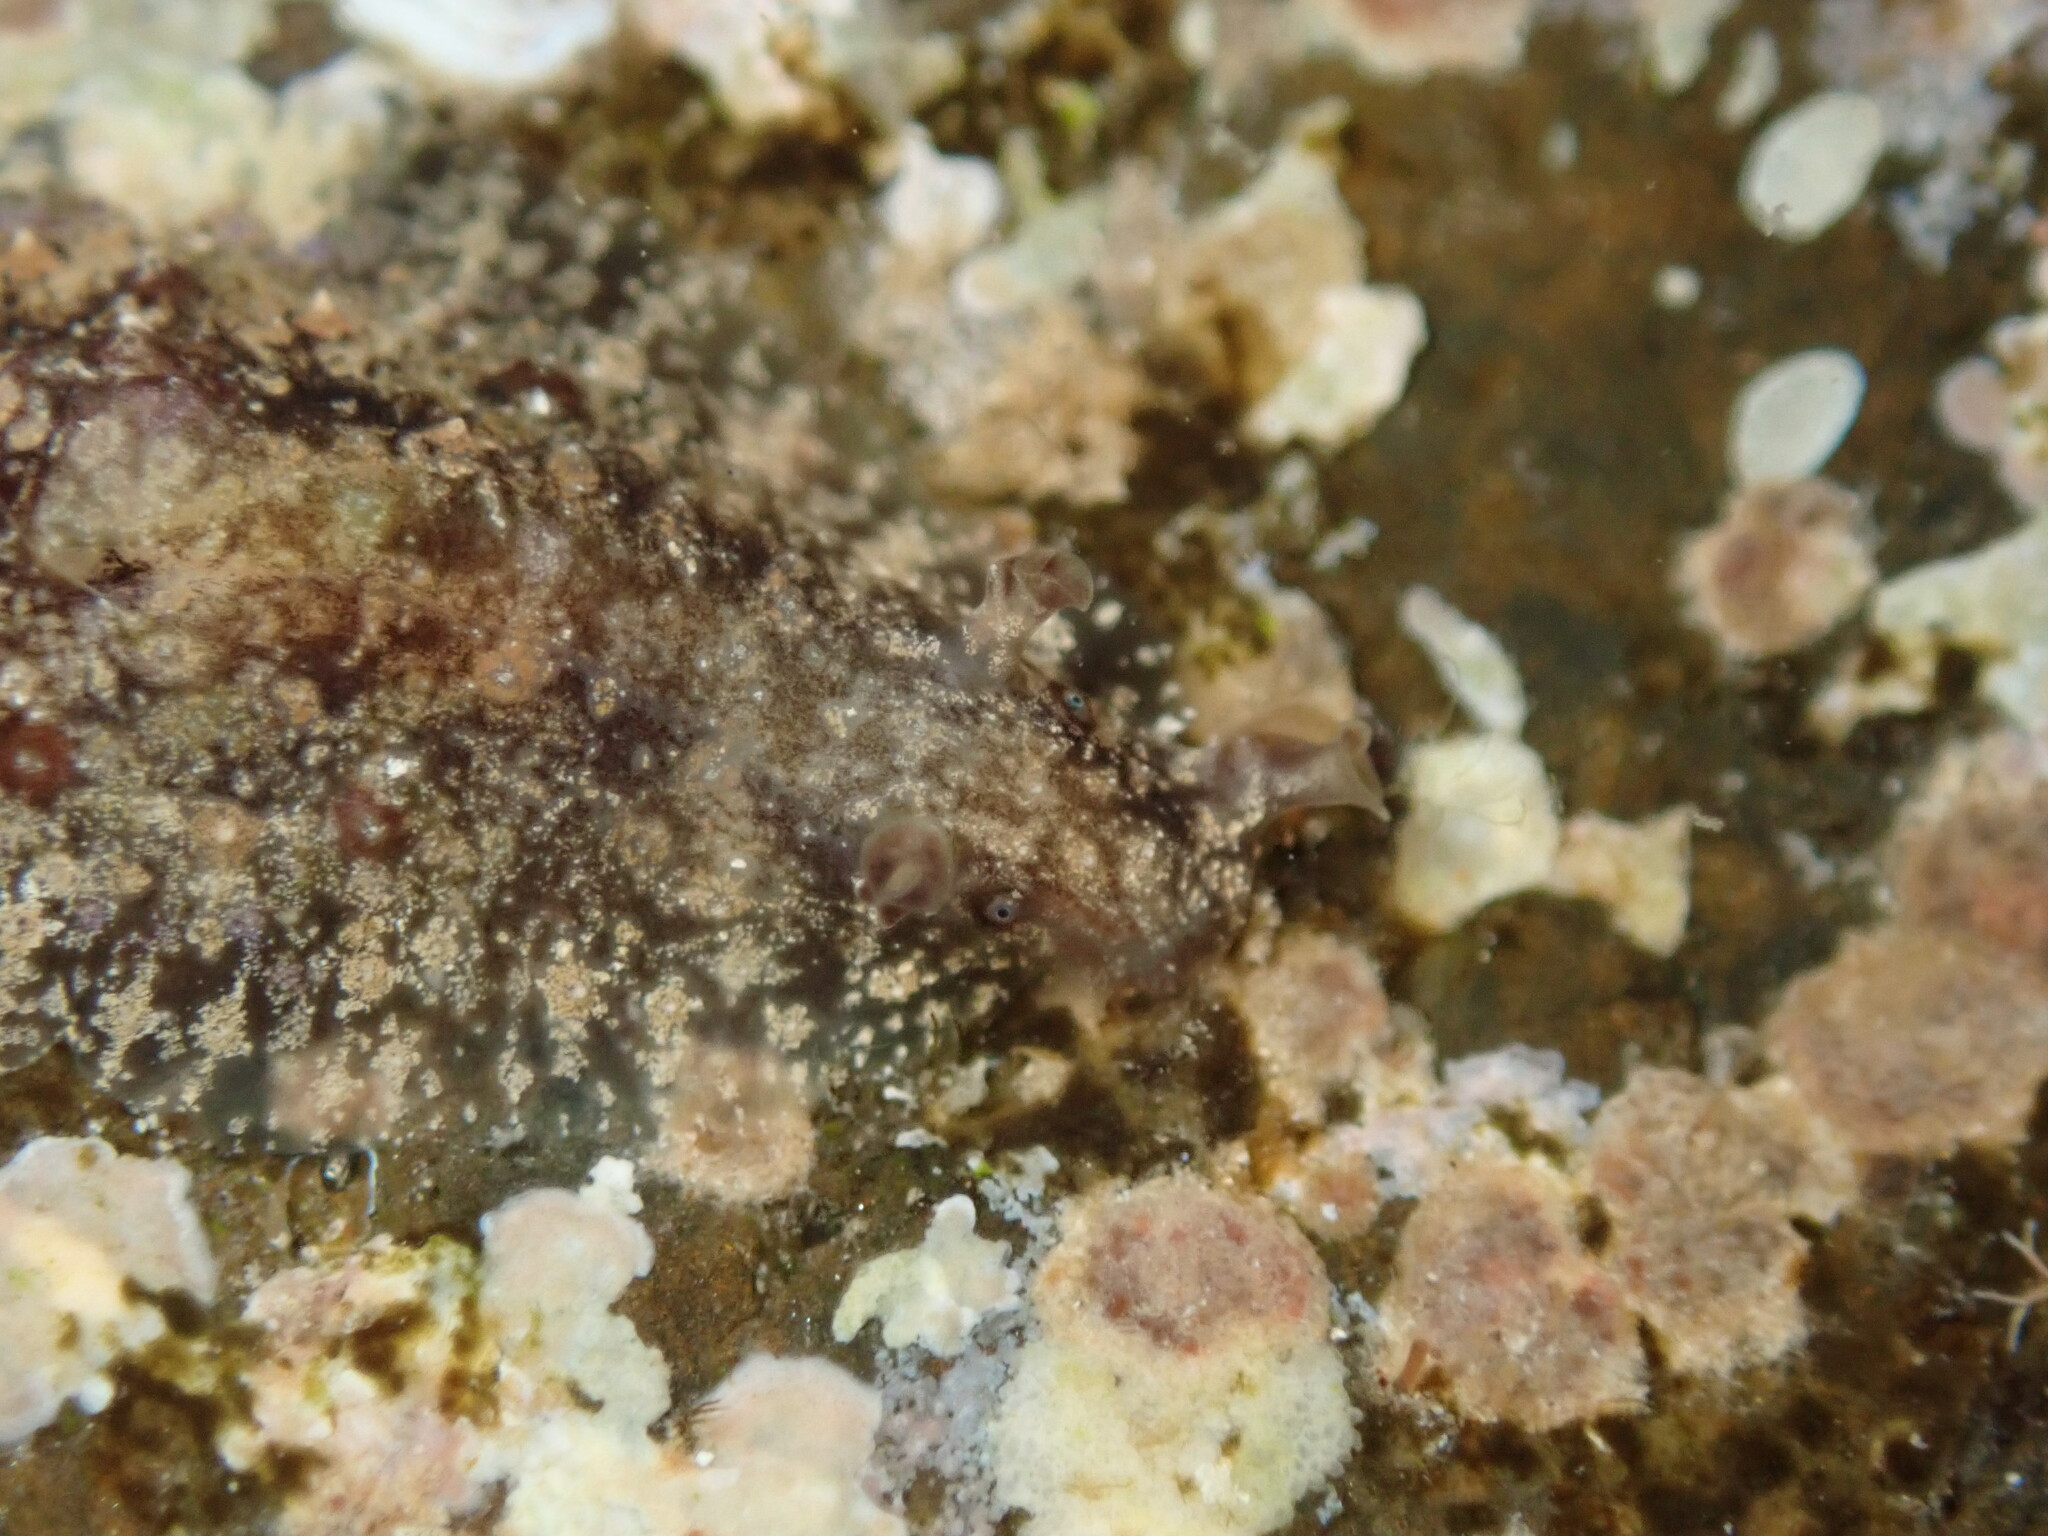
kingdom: Animalia
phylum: Mollusca
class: Gastropoda
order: Aplysiida
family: Aplysiidae
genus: Dolabrifera
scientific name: Dolabrifera dolabrifera
